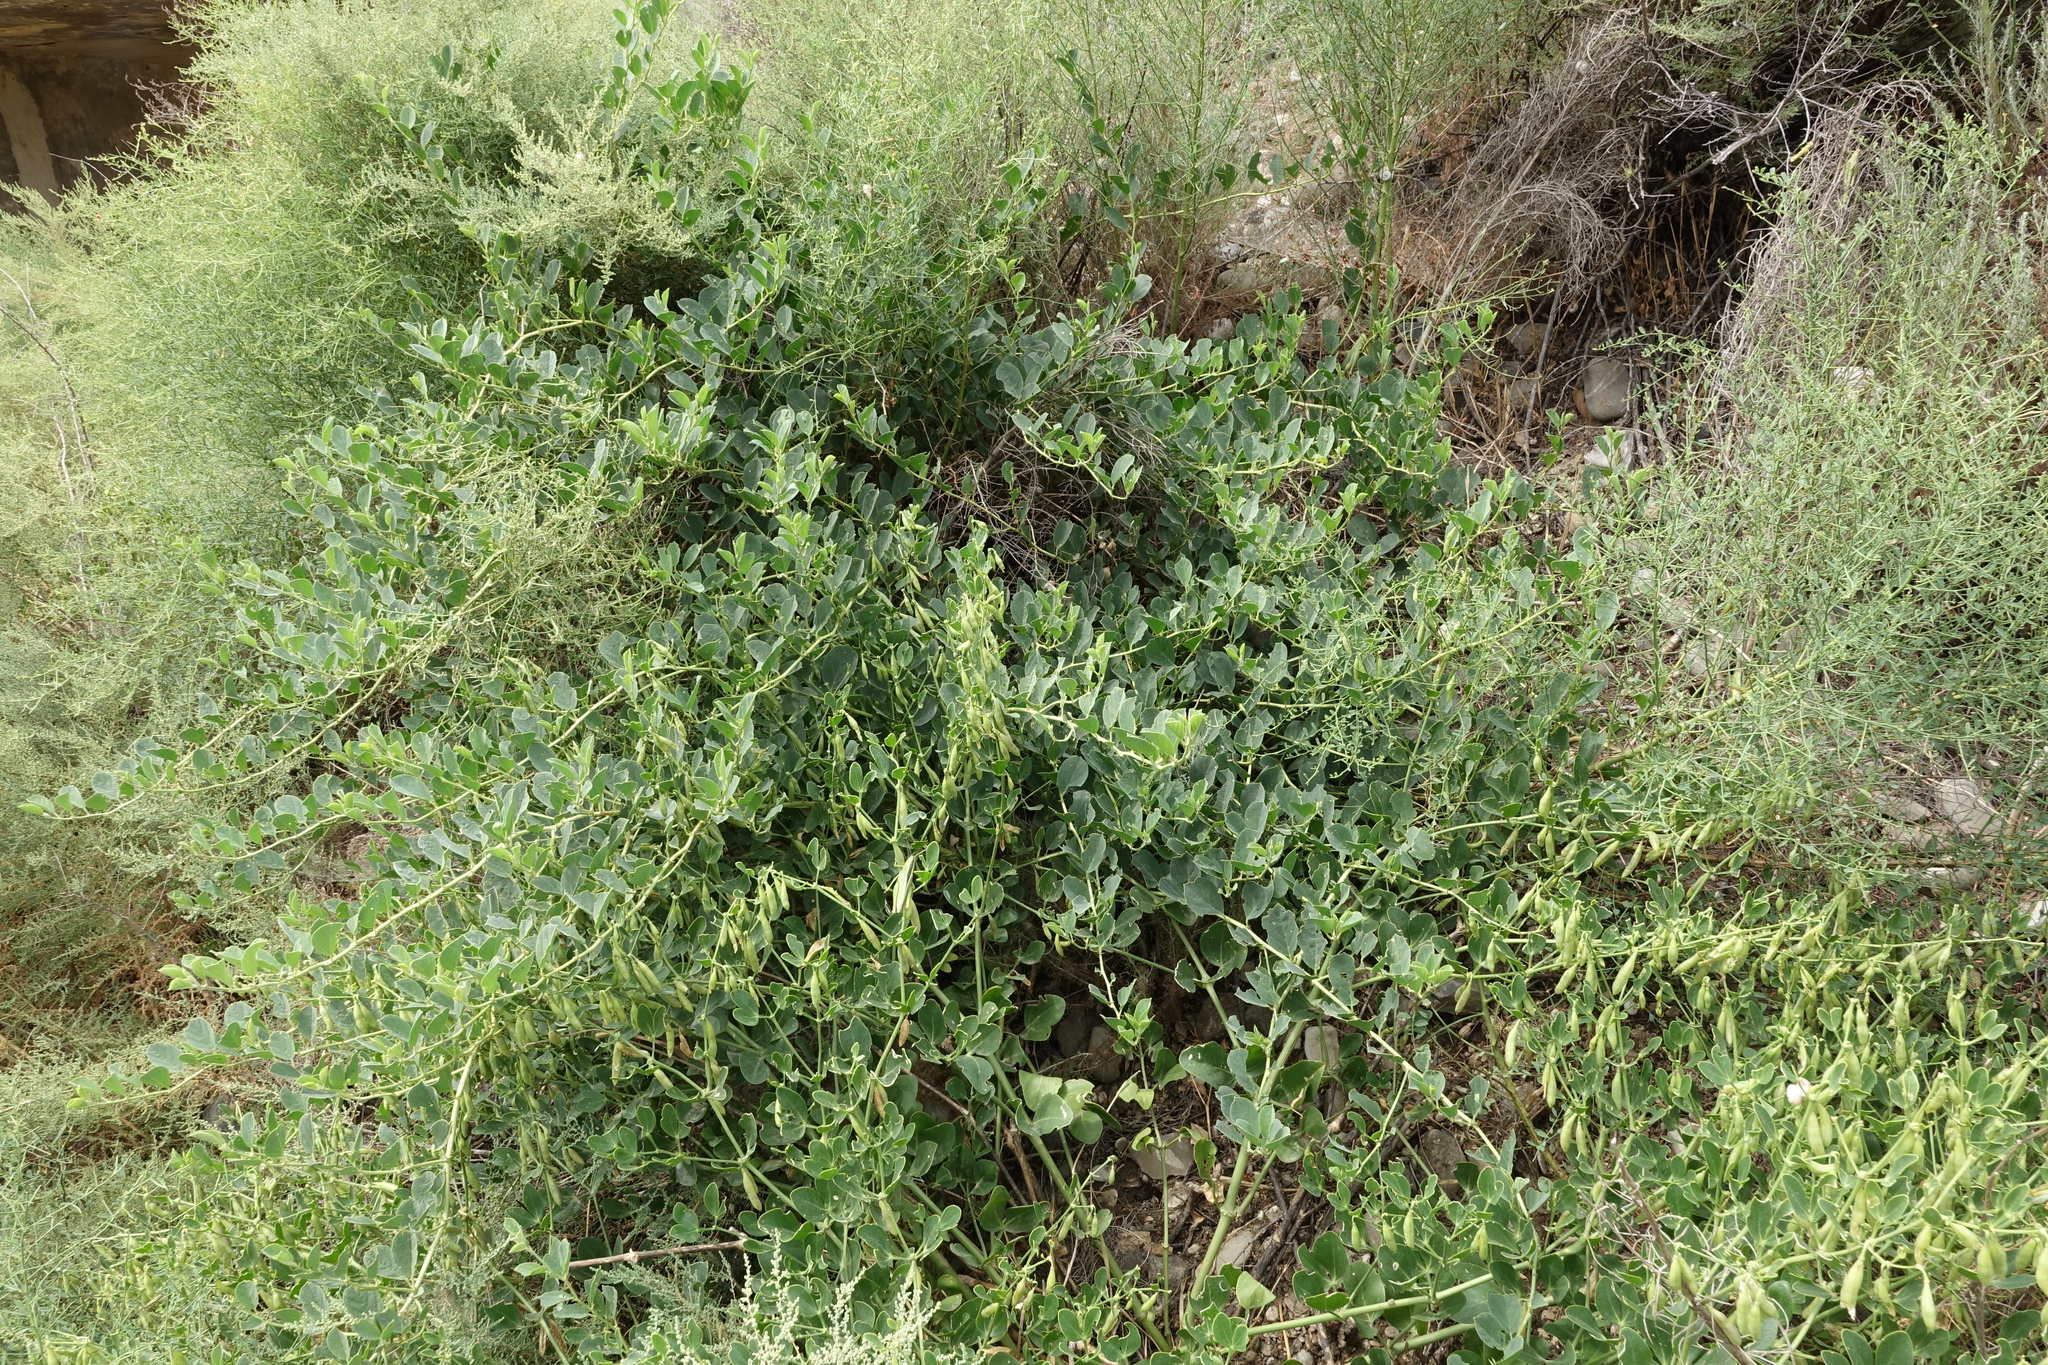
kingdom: Plantae
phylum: Tracheophyta
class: Magnoliopsida
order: Zygophyllales
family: Zygophyllaceae
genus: Zygophyllum
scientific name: Zygophyllum fabago
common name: Syrian beancaper
